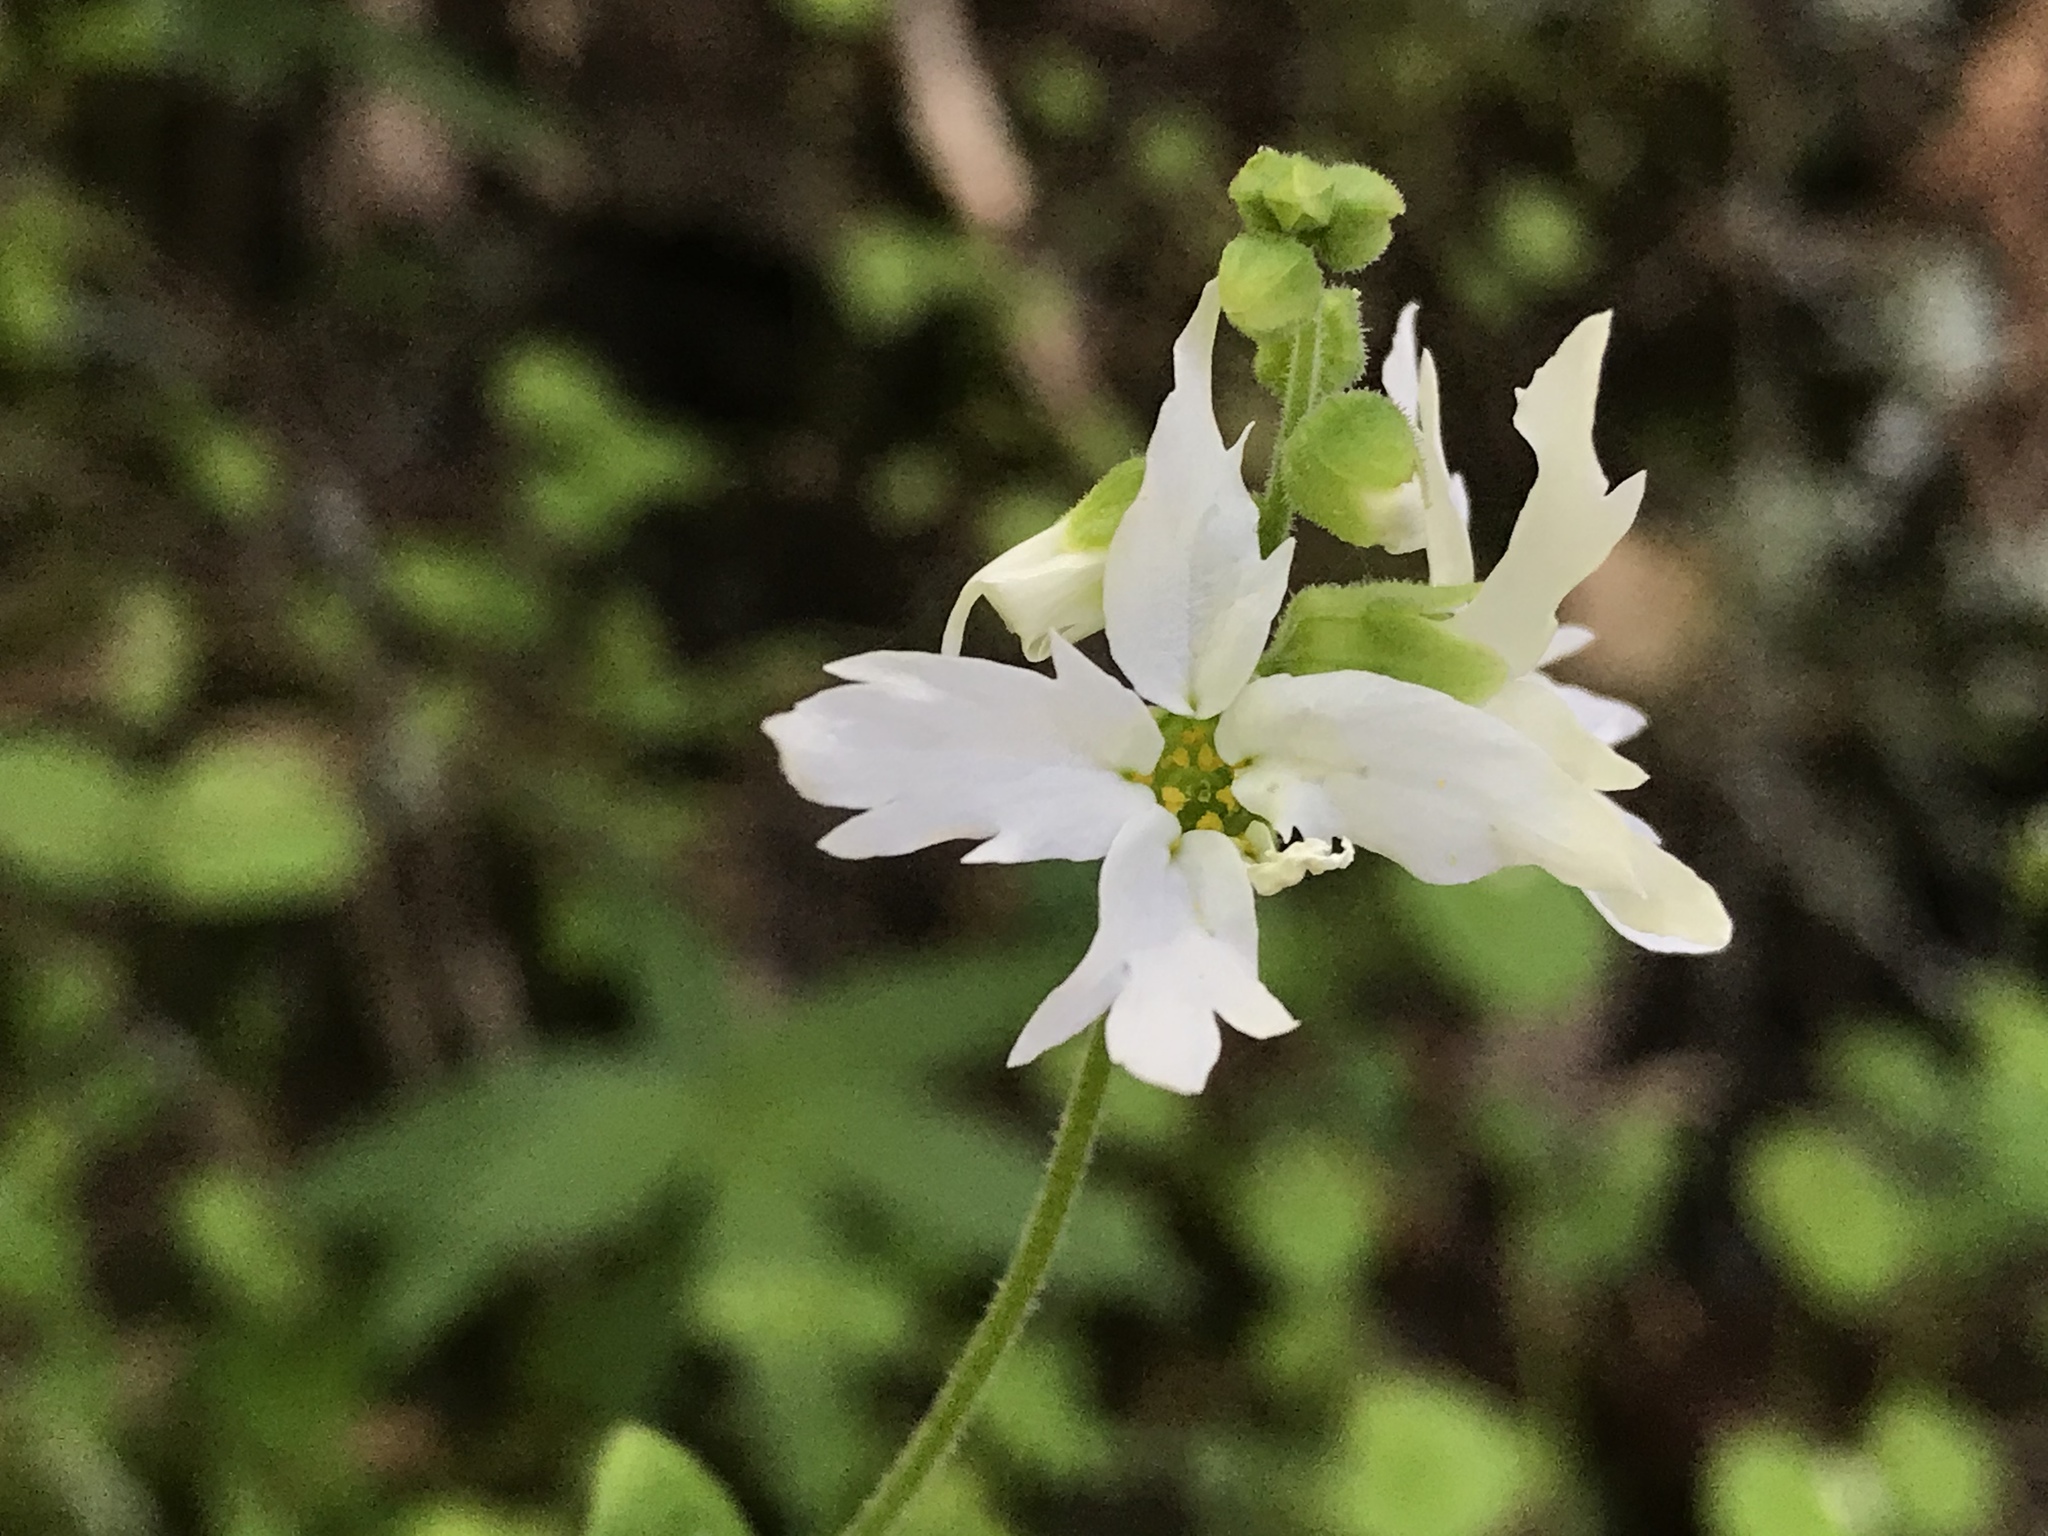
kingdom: Plantae
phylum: Tracheophyta
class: Magnoliopsida
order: Saxifragales
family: Saxifragaceae
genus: Lithophragma
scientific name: Lithophragma heterophyllum
